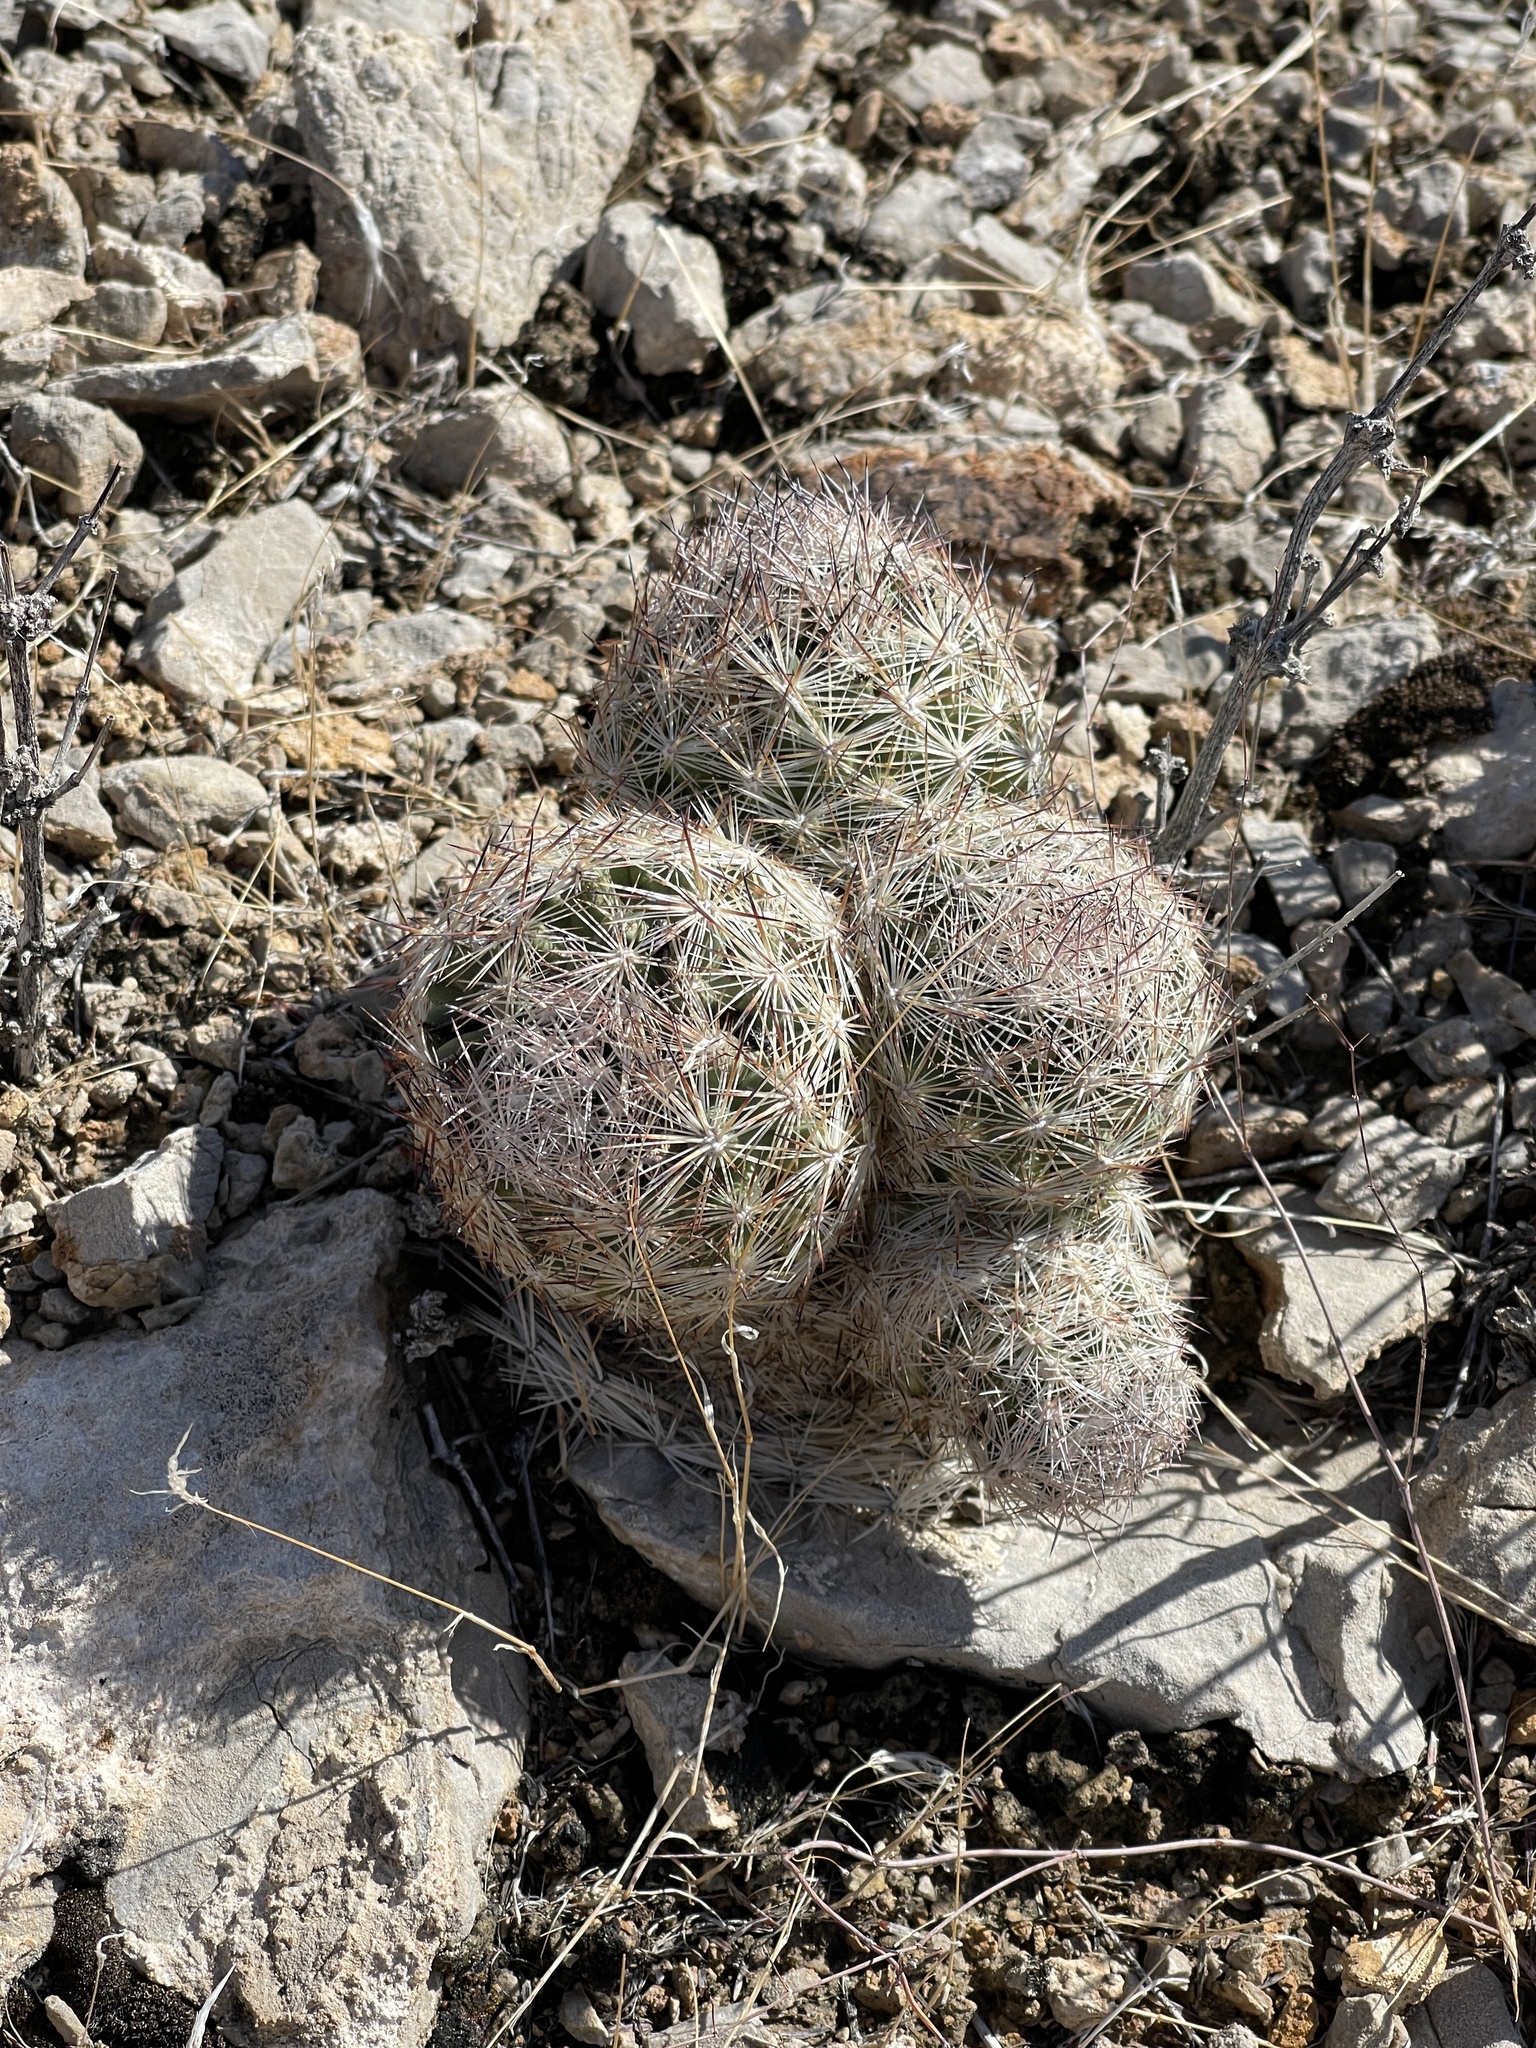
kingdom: Plantae
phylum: Tracheophyta
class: Magnoliopsida
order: Caryophyllales
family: Cactaceae
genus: Pelecyphora
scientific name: Pelecyphora dasyacantha
